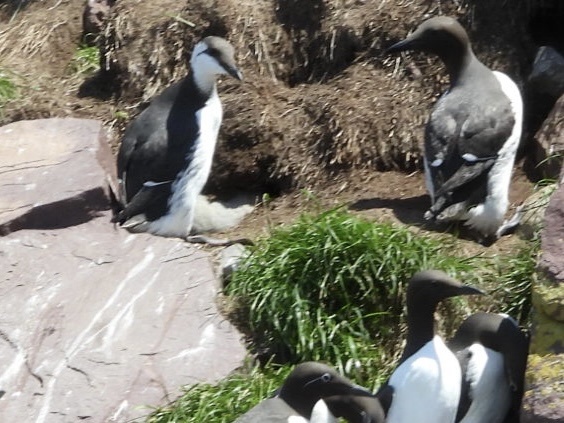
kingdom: Animalia
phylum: Chordata
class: Aves
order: Charadriiformes
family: Alcidae
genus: Uria
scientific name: Uria aalge
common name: Common murre
